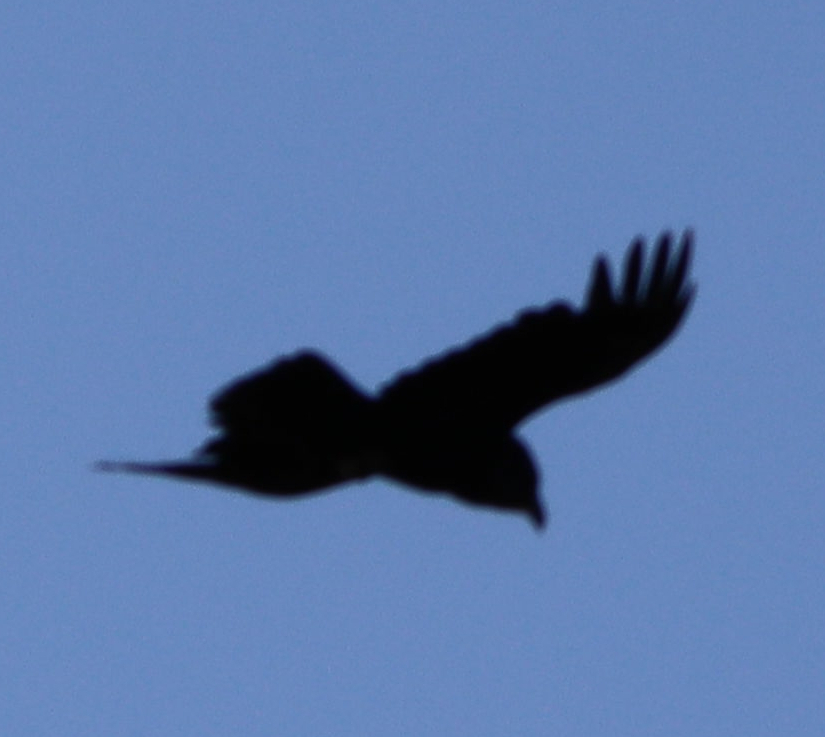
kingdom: Animalia
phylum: Chordata
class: Aves
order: Passeriformes
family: Corvidae
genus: Corvus
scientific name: Corvus corax
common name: Common raven
